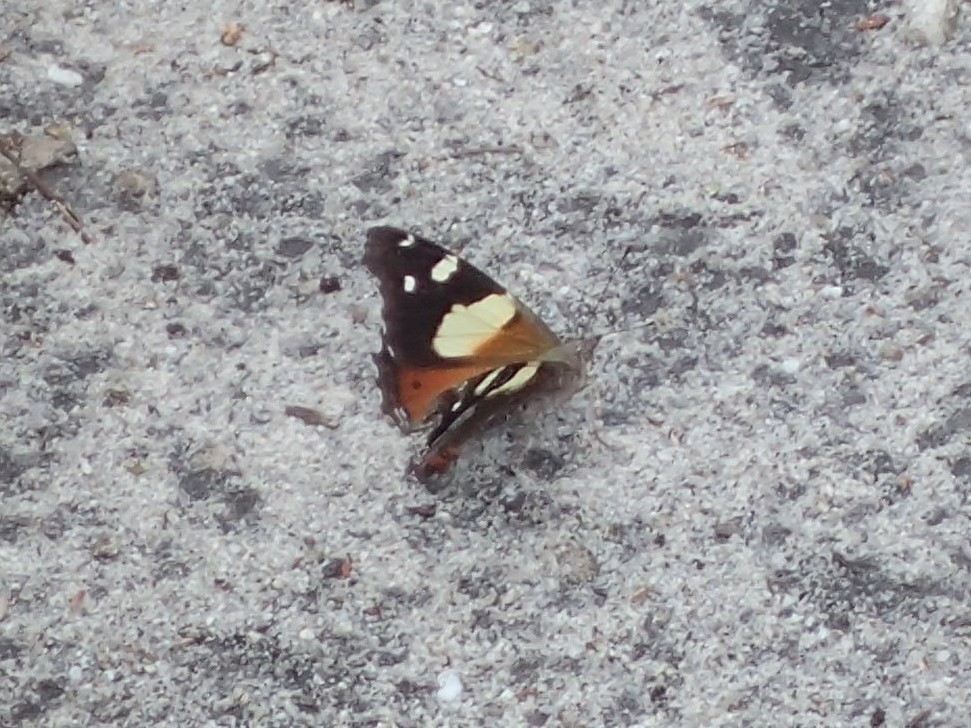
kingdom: Animalia
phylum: Arthropoda
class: Insecta
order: Lepidoptera
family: Nymphalidae
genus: Vanessa
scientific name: Vanessa itea
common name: Yellow admiral
